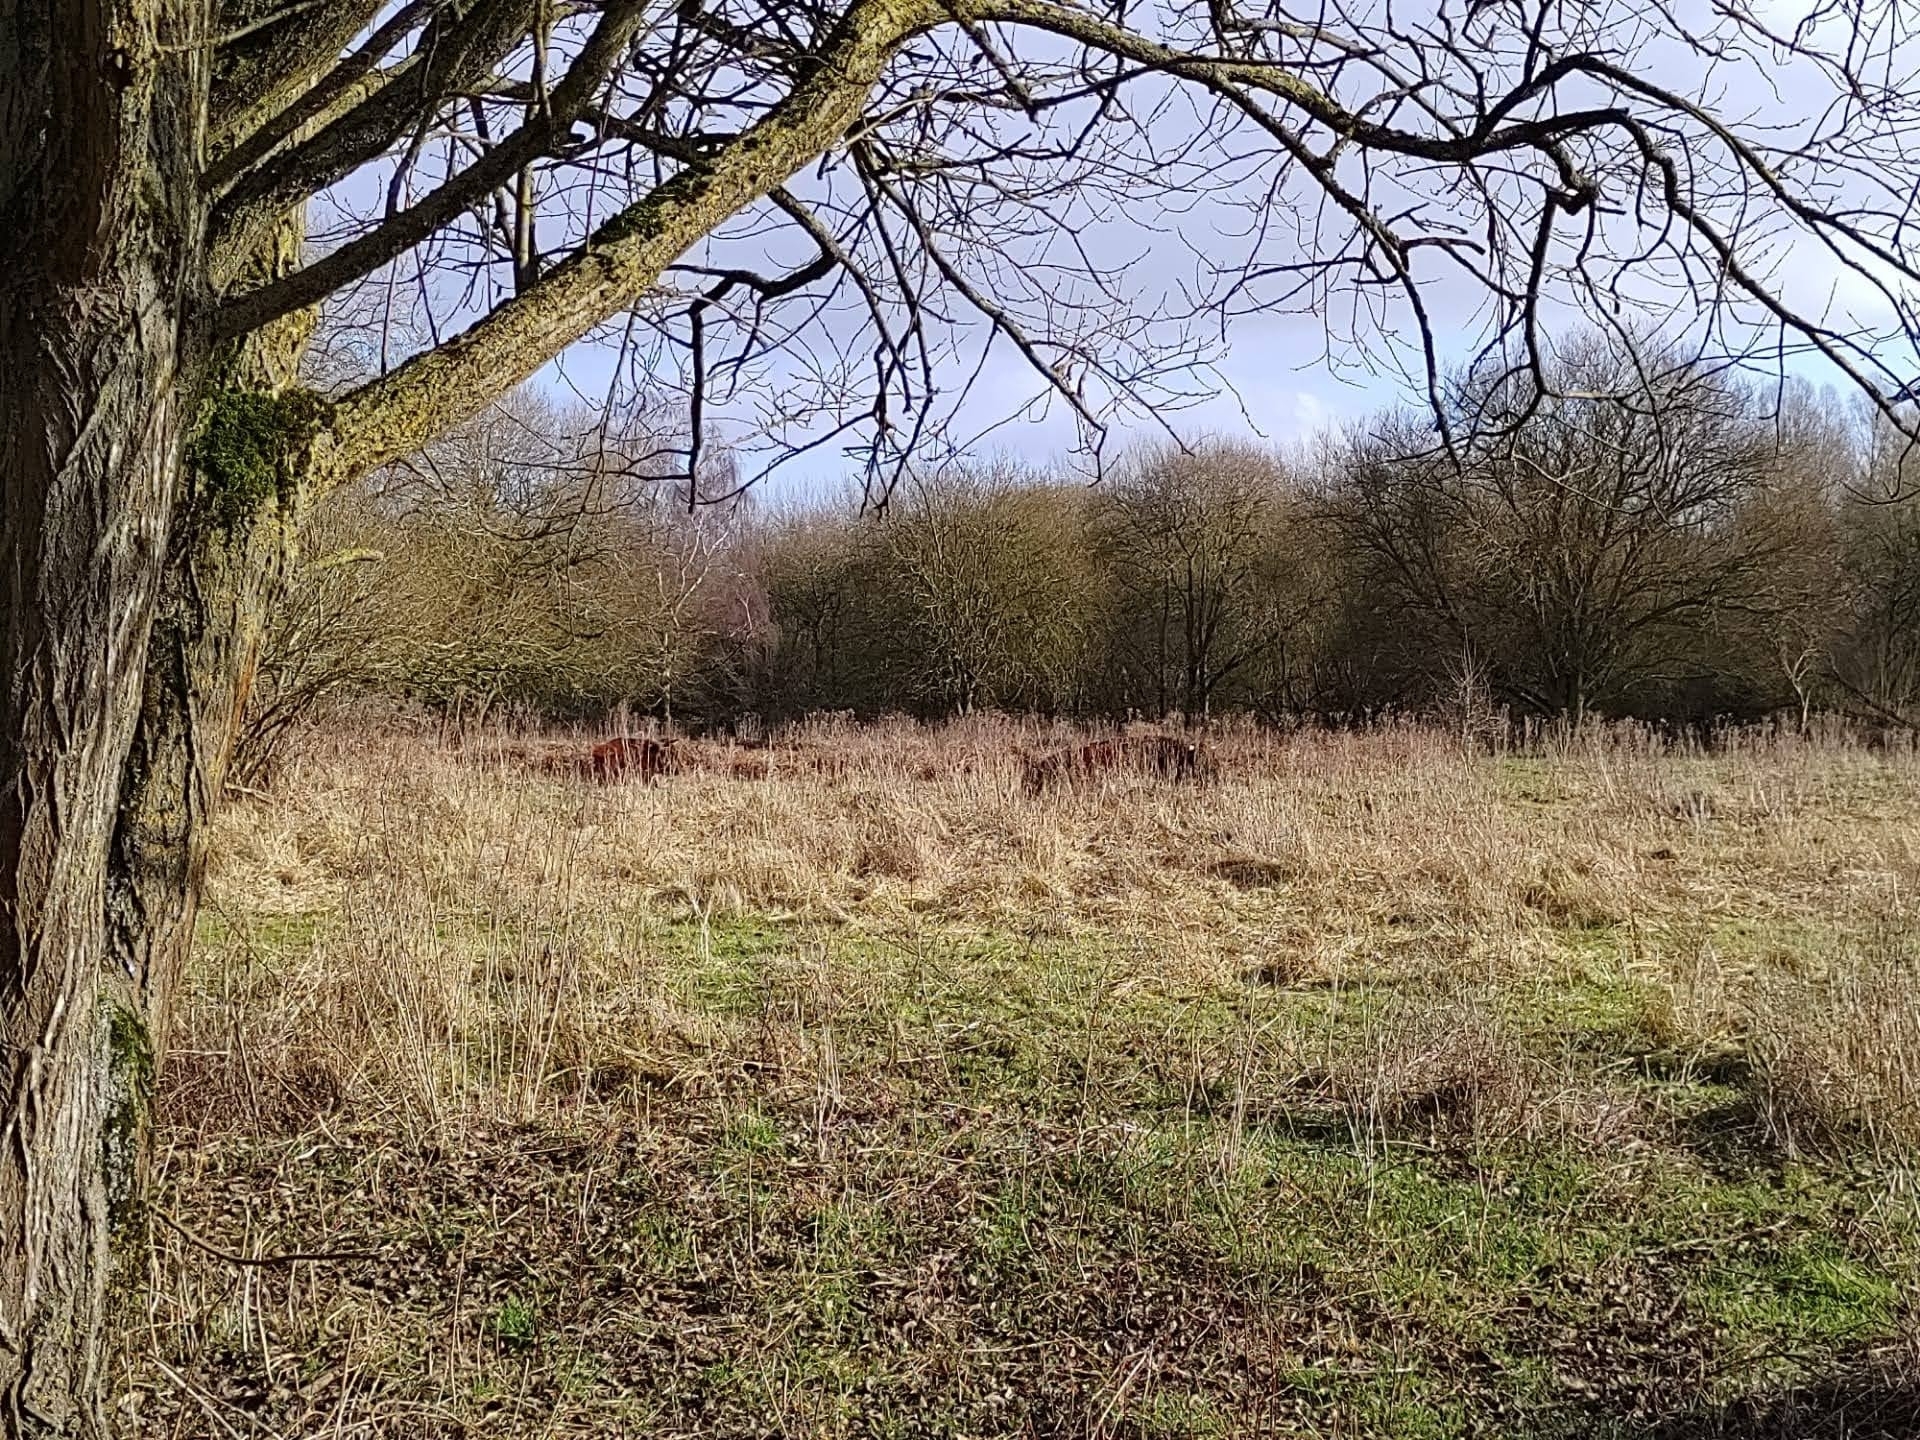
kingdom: Animalia
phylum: Chordata
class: Mammalia
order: Artiodactyla
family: Bovidae
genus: Bos
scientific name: Bos taurus
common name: Domesticated cattle
